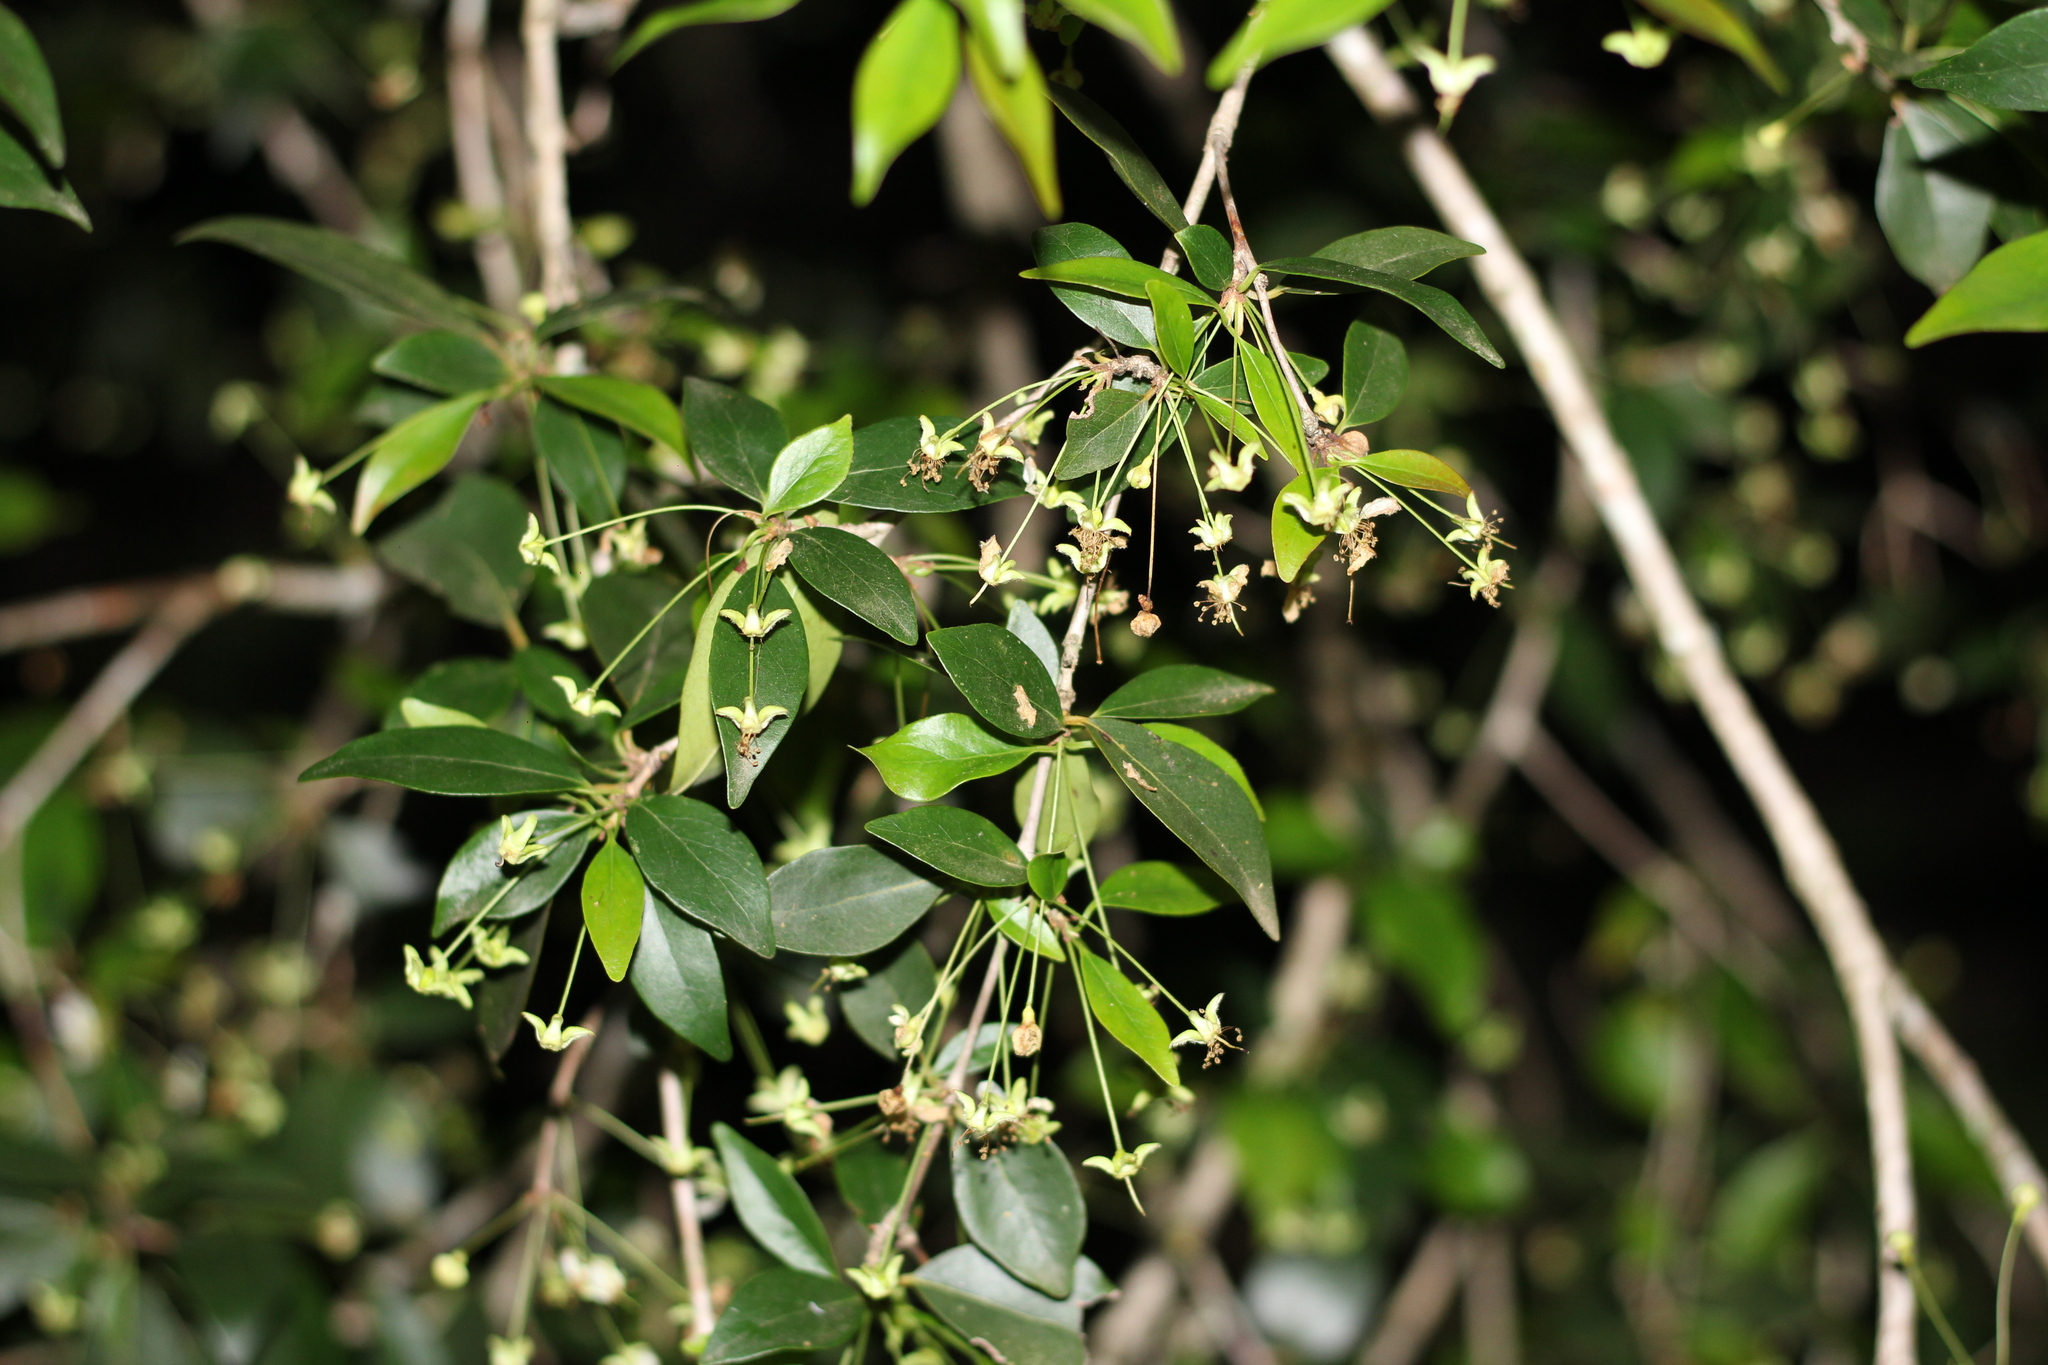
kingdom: Plantae
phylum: Tracheophyta
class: Magnoliopsida
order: Myrtales
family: Myrtaceae
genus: Eugenia
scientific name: Eugenia uniflora
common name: Surinam cherry
